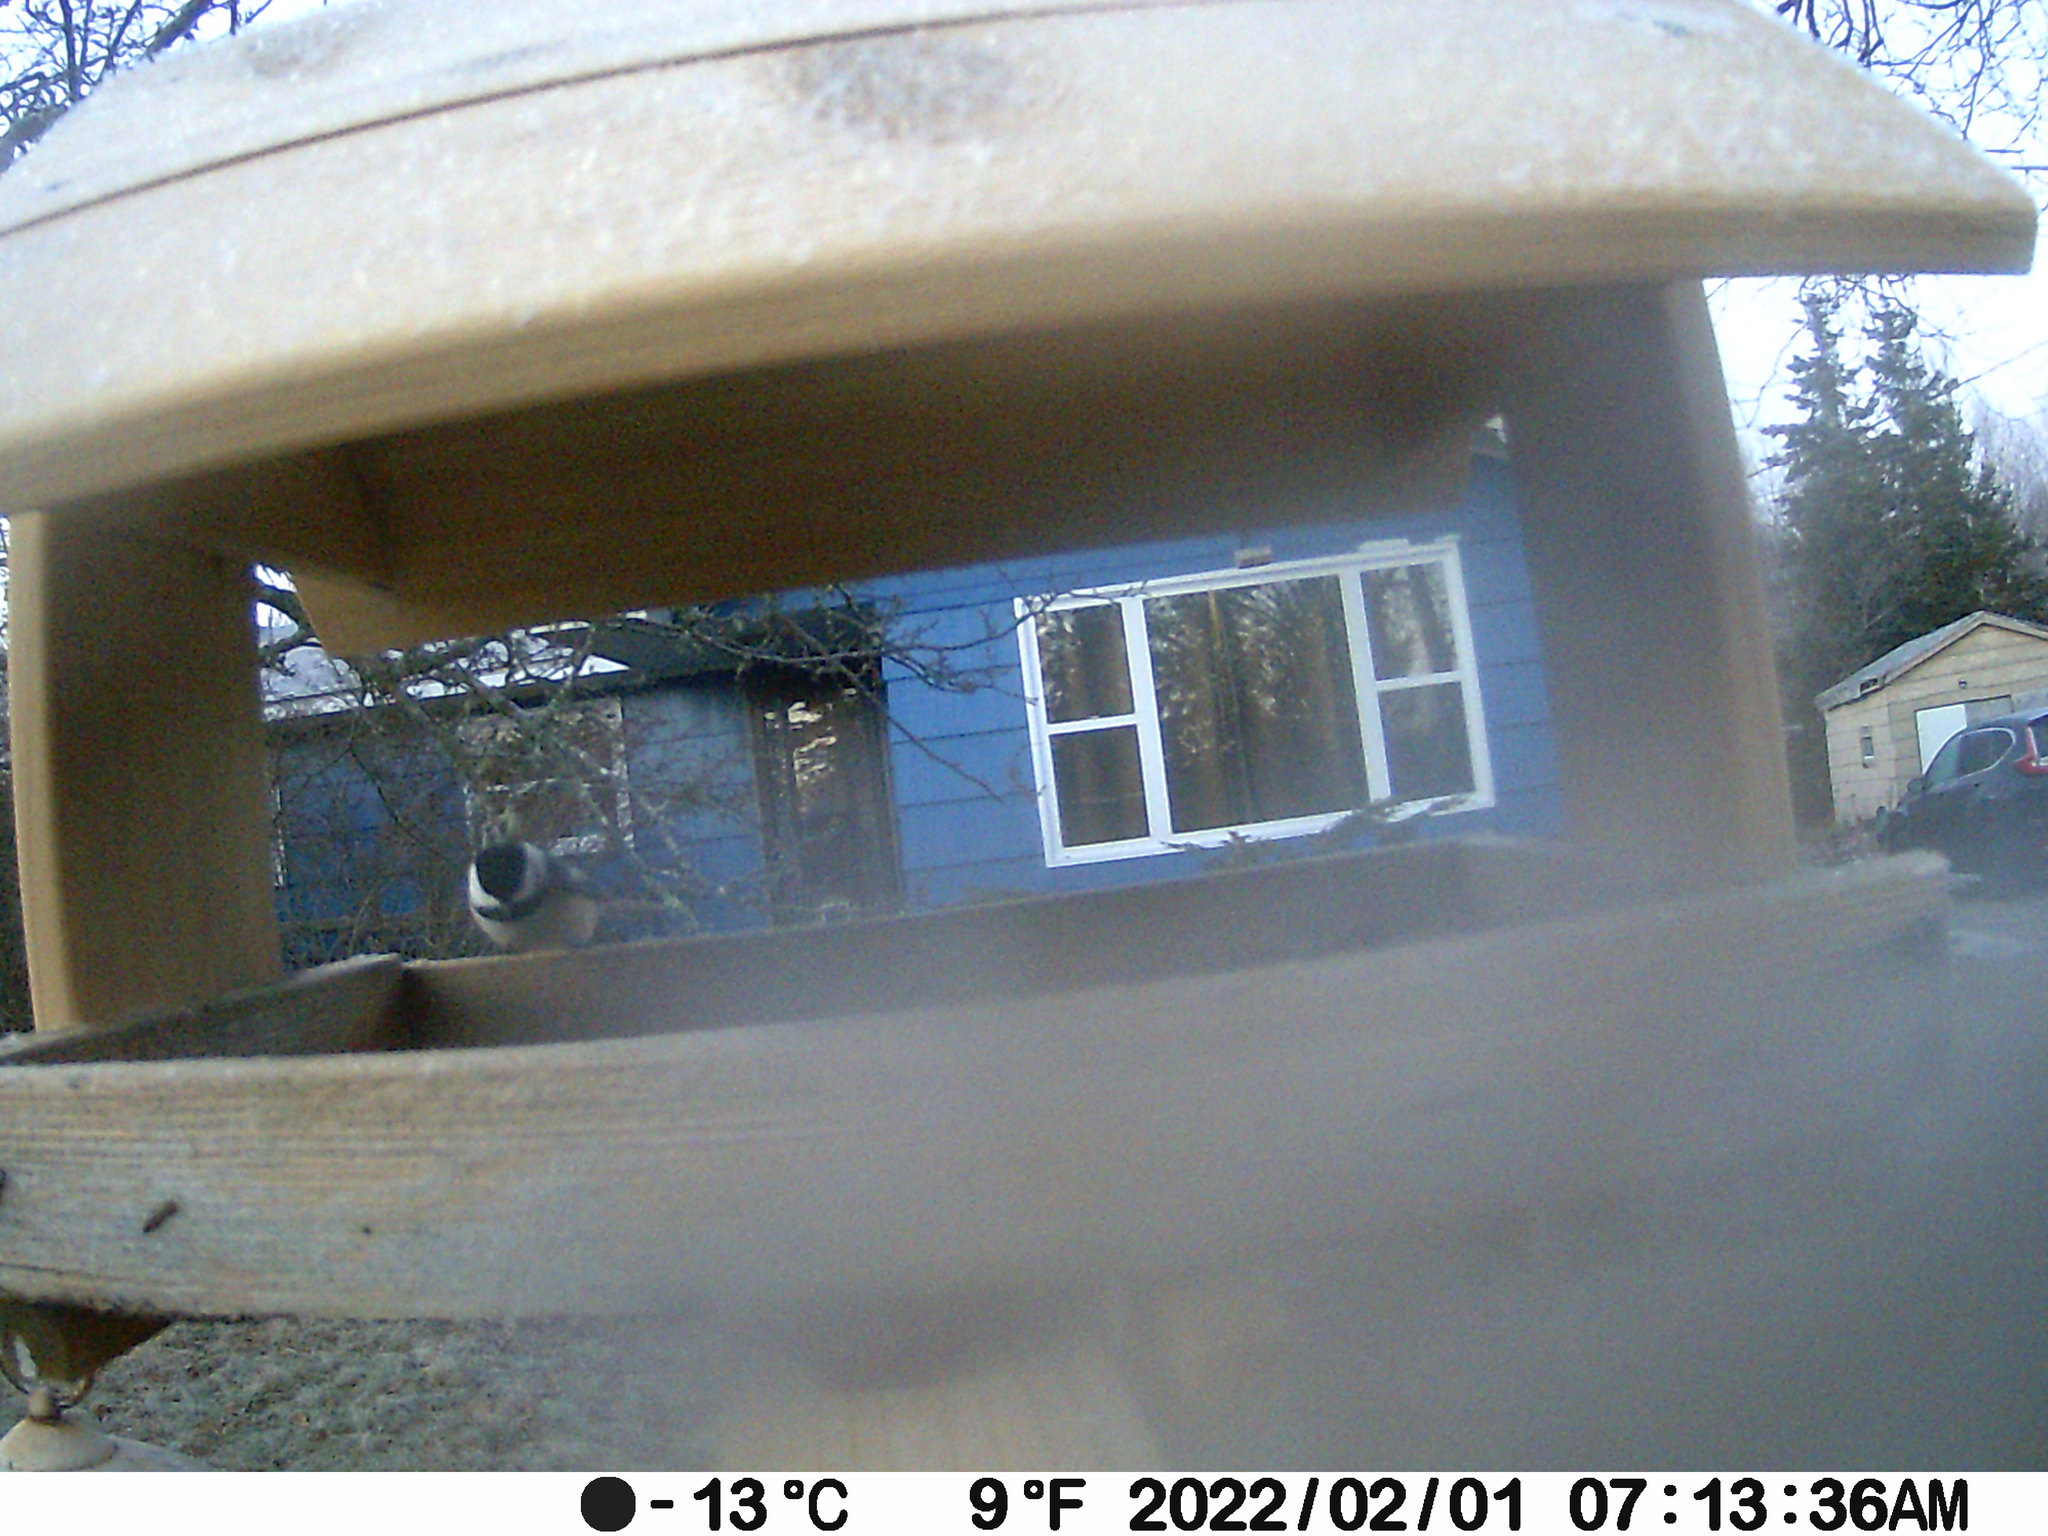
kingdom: Animalia
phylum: Chordata
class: Aves
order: Passeriformes
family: Paridae
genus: Poecile
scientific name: Poecile atricapillus
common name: Black-capped chickadee
